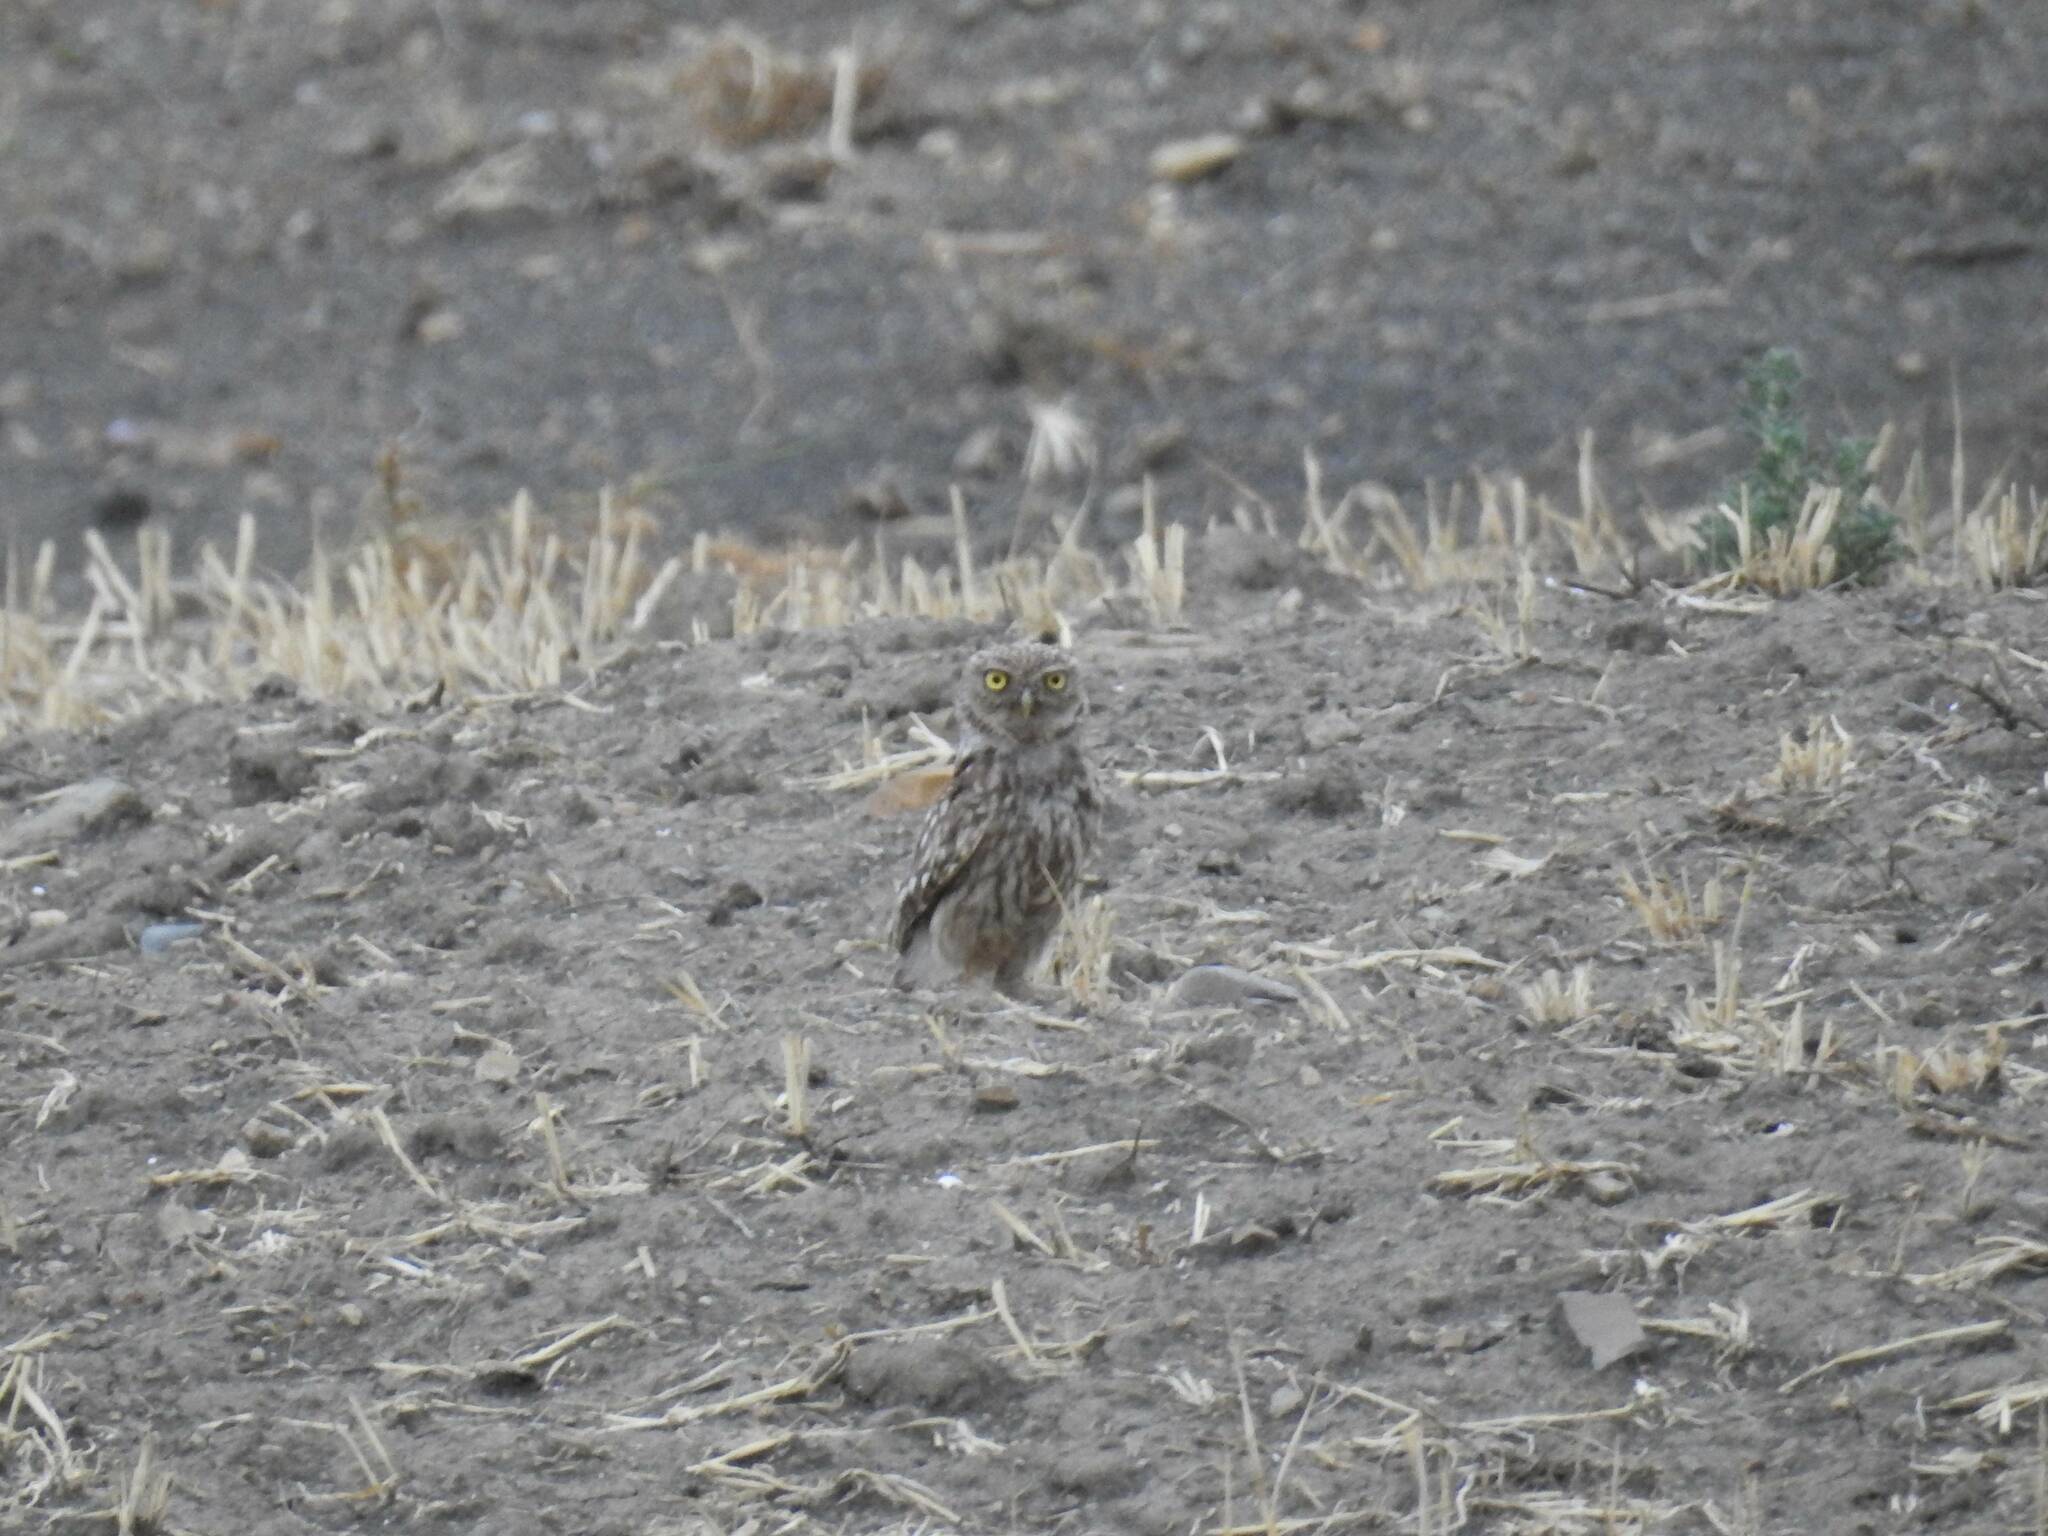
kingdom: Animalia
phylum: Chordata
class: Aves
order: Strigiformes
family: Strigidae
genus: Athene
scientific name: Athene noctua
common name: Little owl
